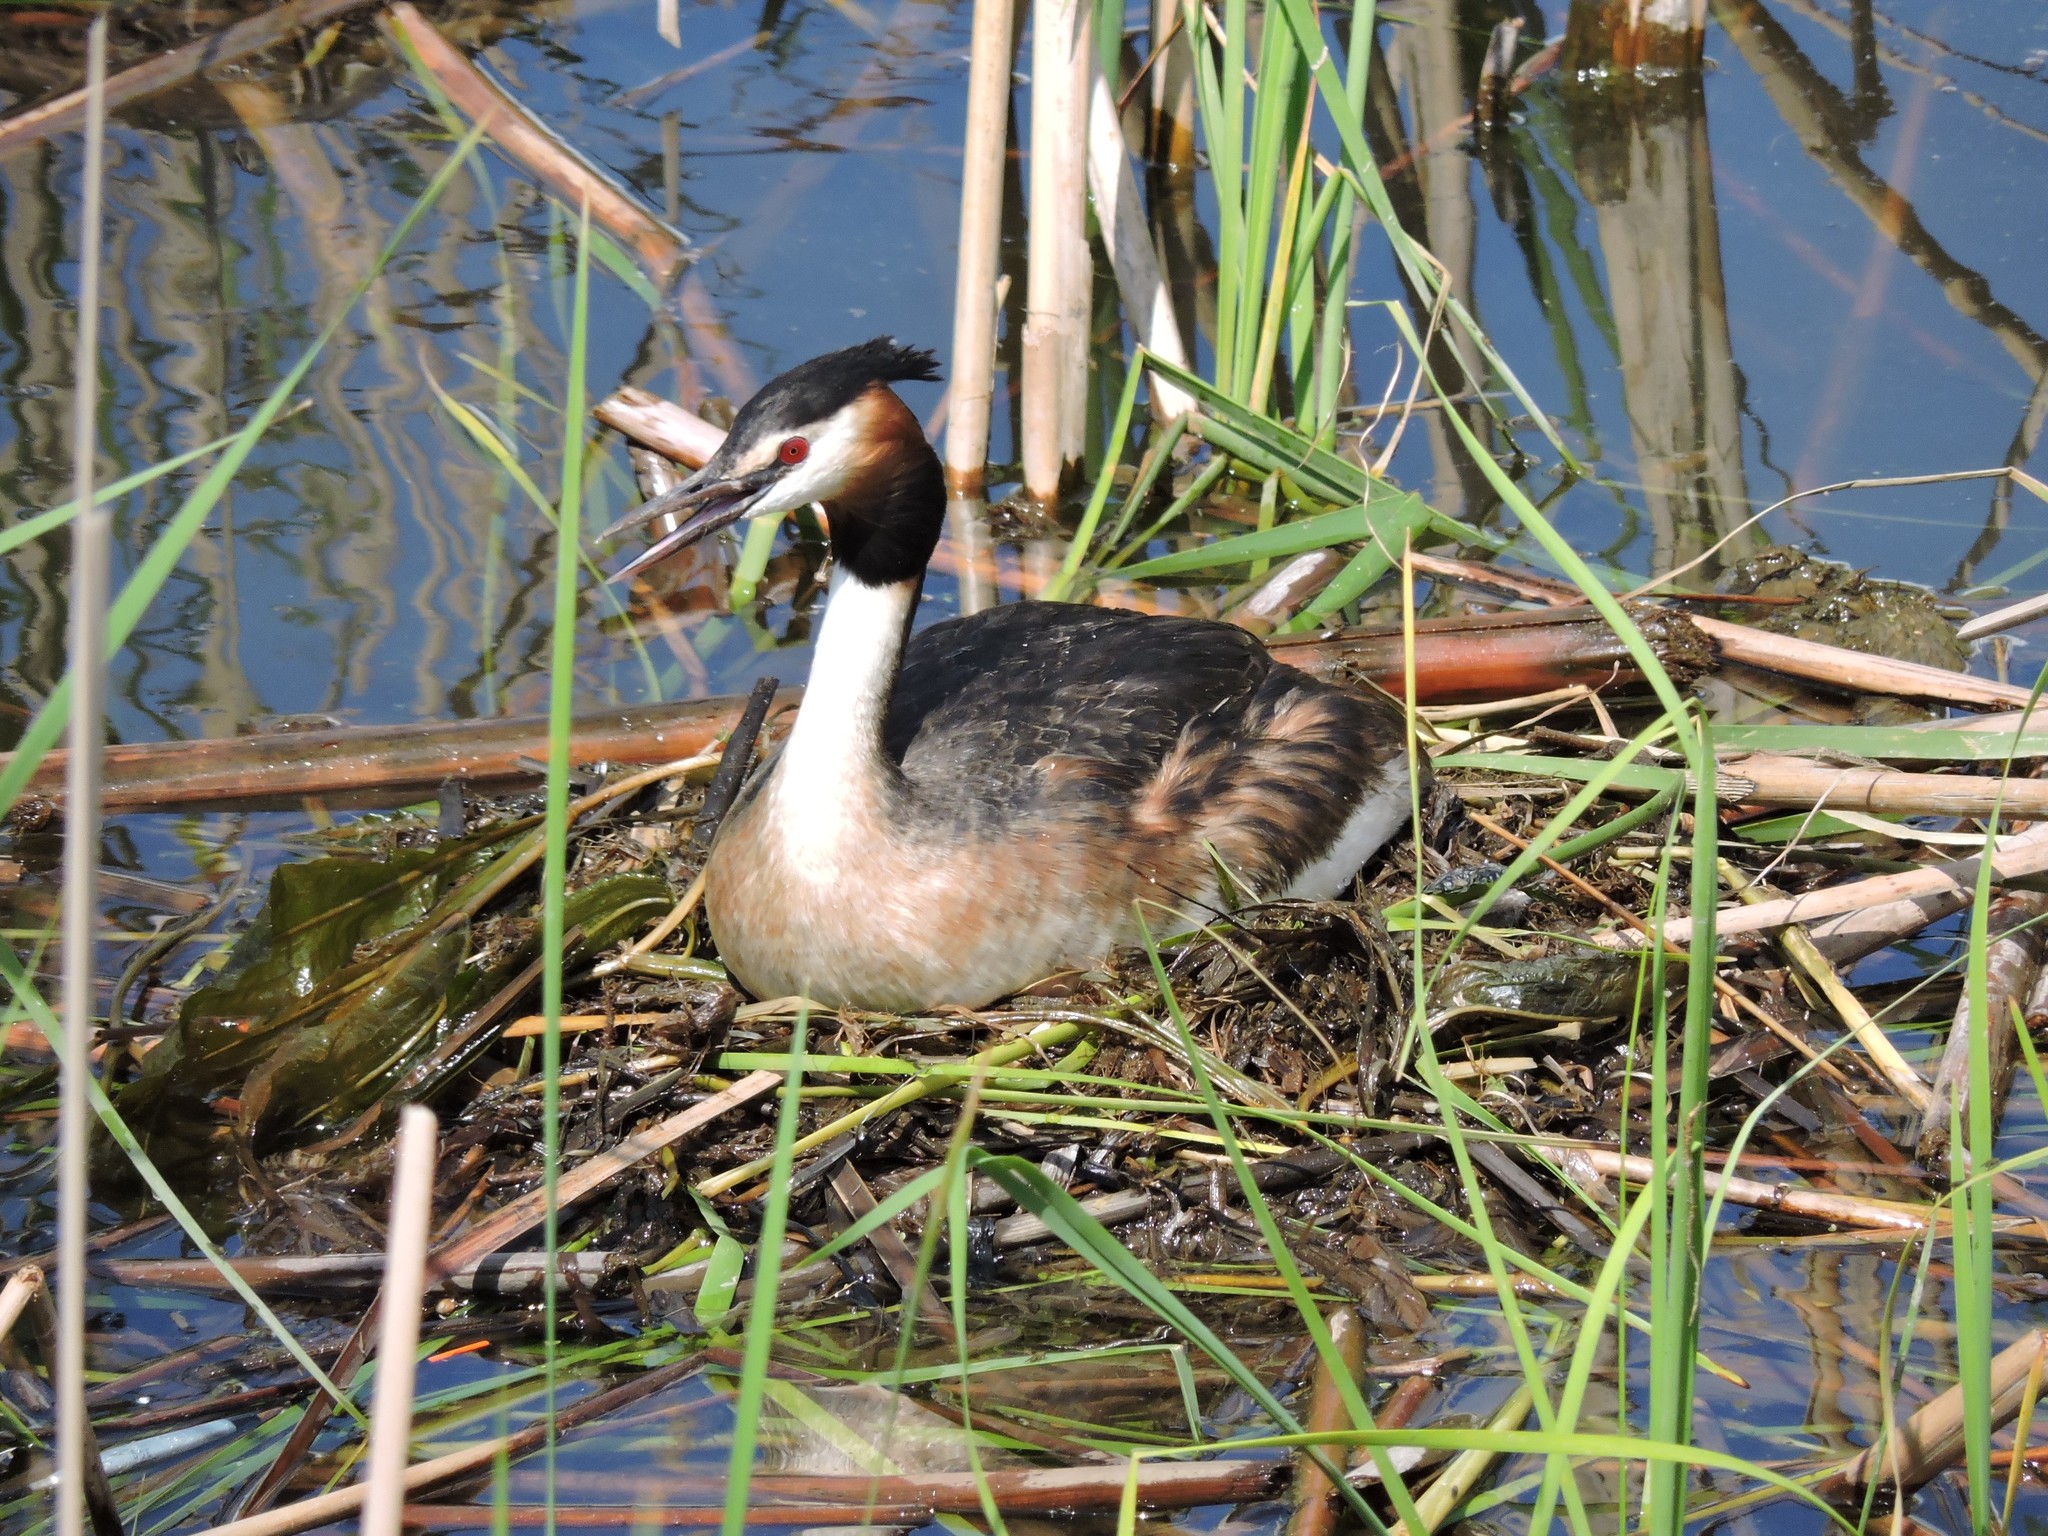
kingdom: Animalia
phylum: Chordata
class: Aves
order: Podicipediformes
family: Podicipedidae
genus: Podiceps
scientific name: Podiceps cristatus
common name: Great crested grebe
